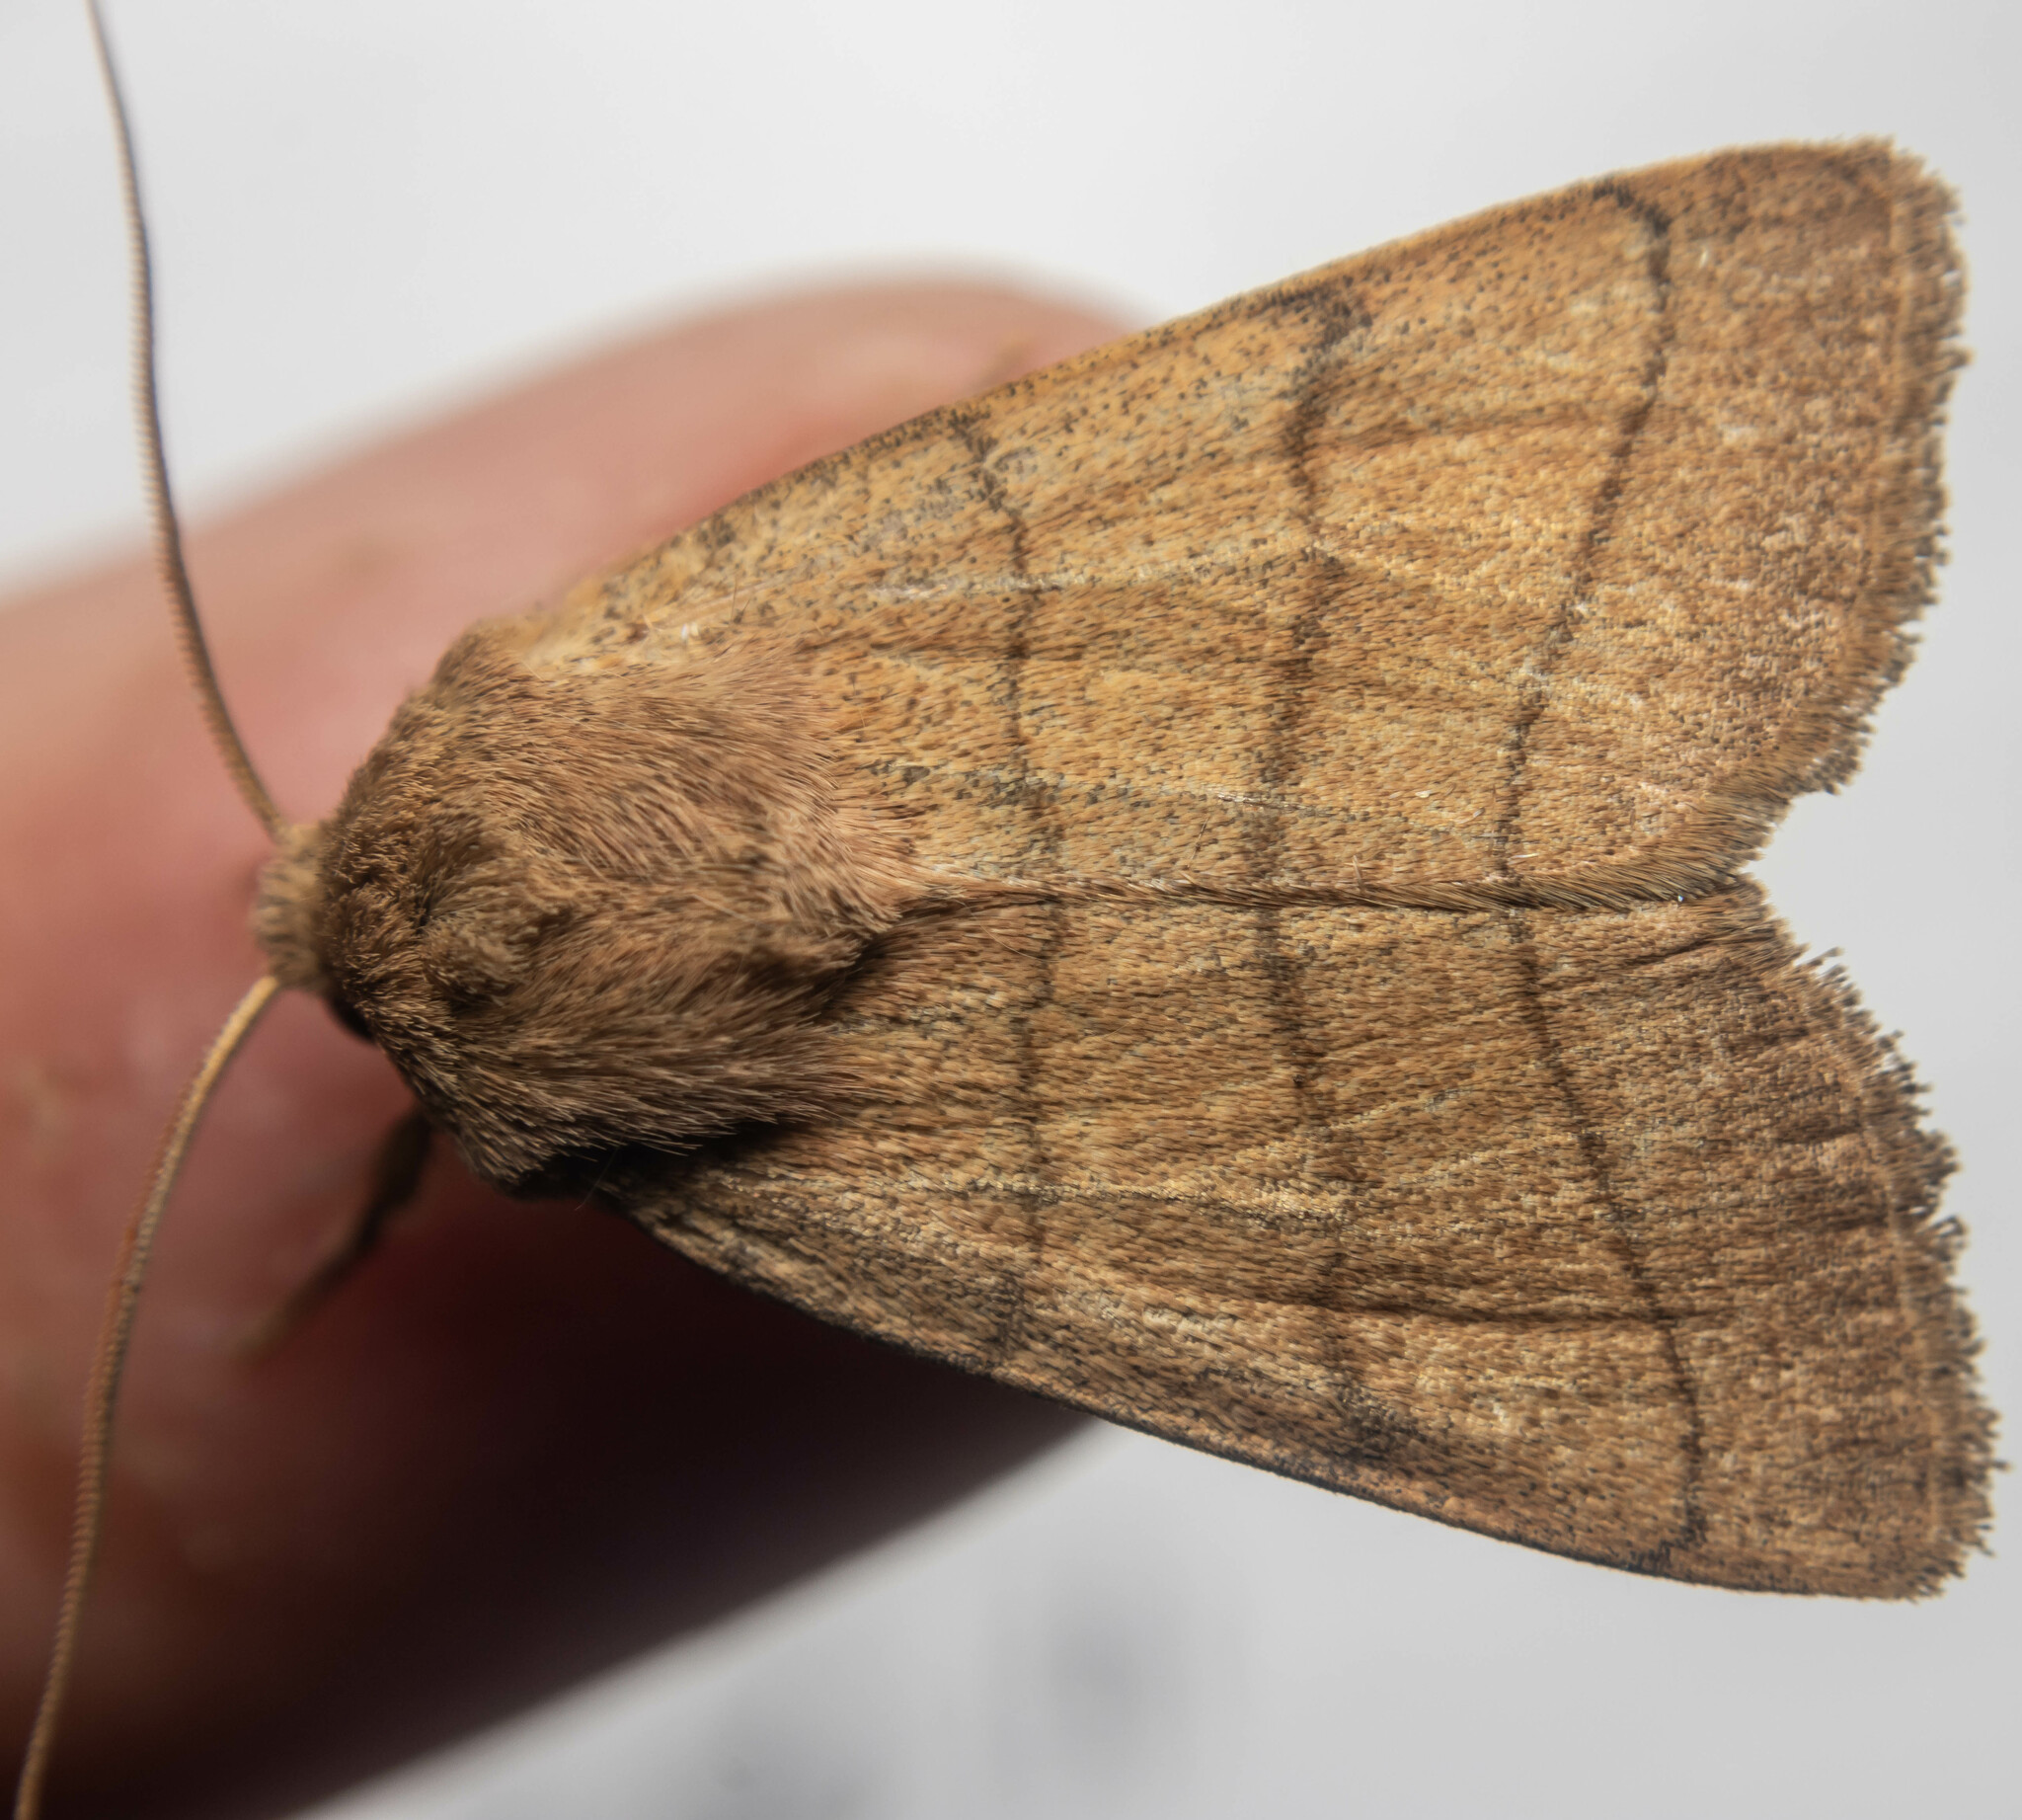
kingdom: Animalia
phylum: Arthropoda
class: Insecta
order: Lepidoptera
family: Noctuidae
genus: Charanyca
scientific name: Charanyca trigrammica
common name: Treble lines
